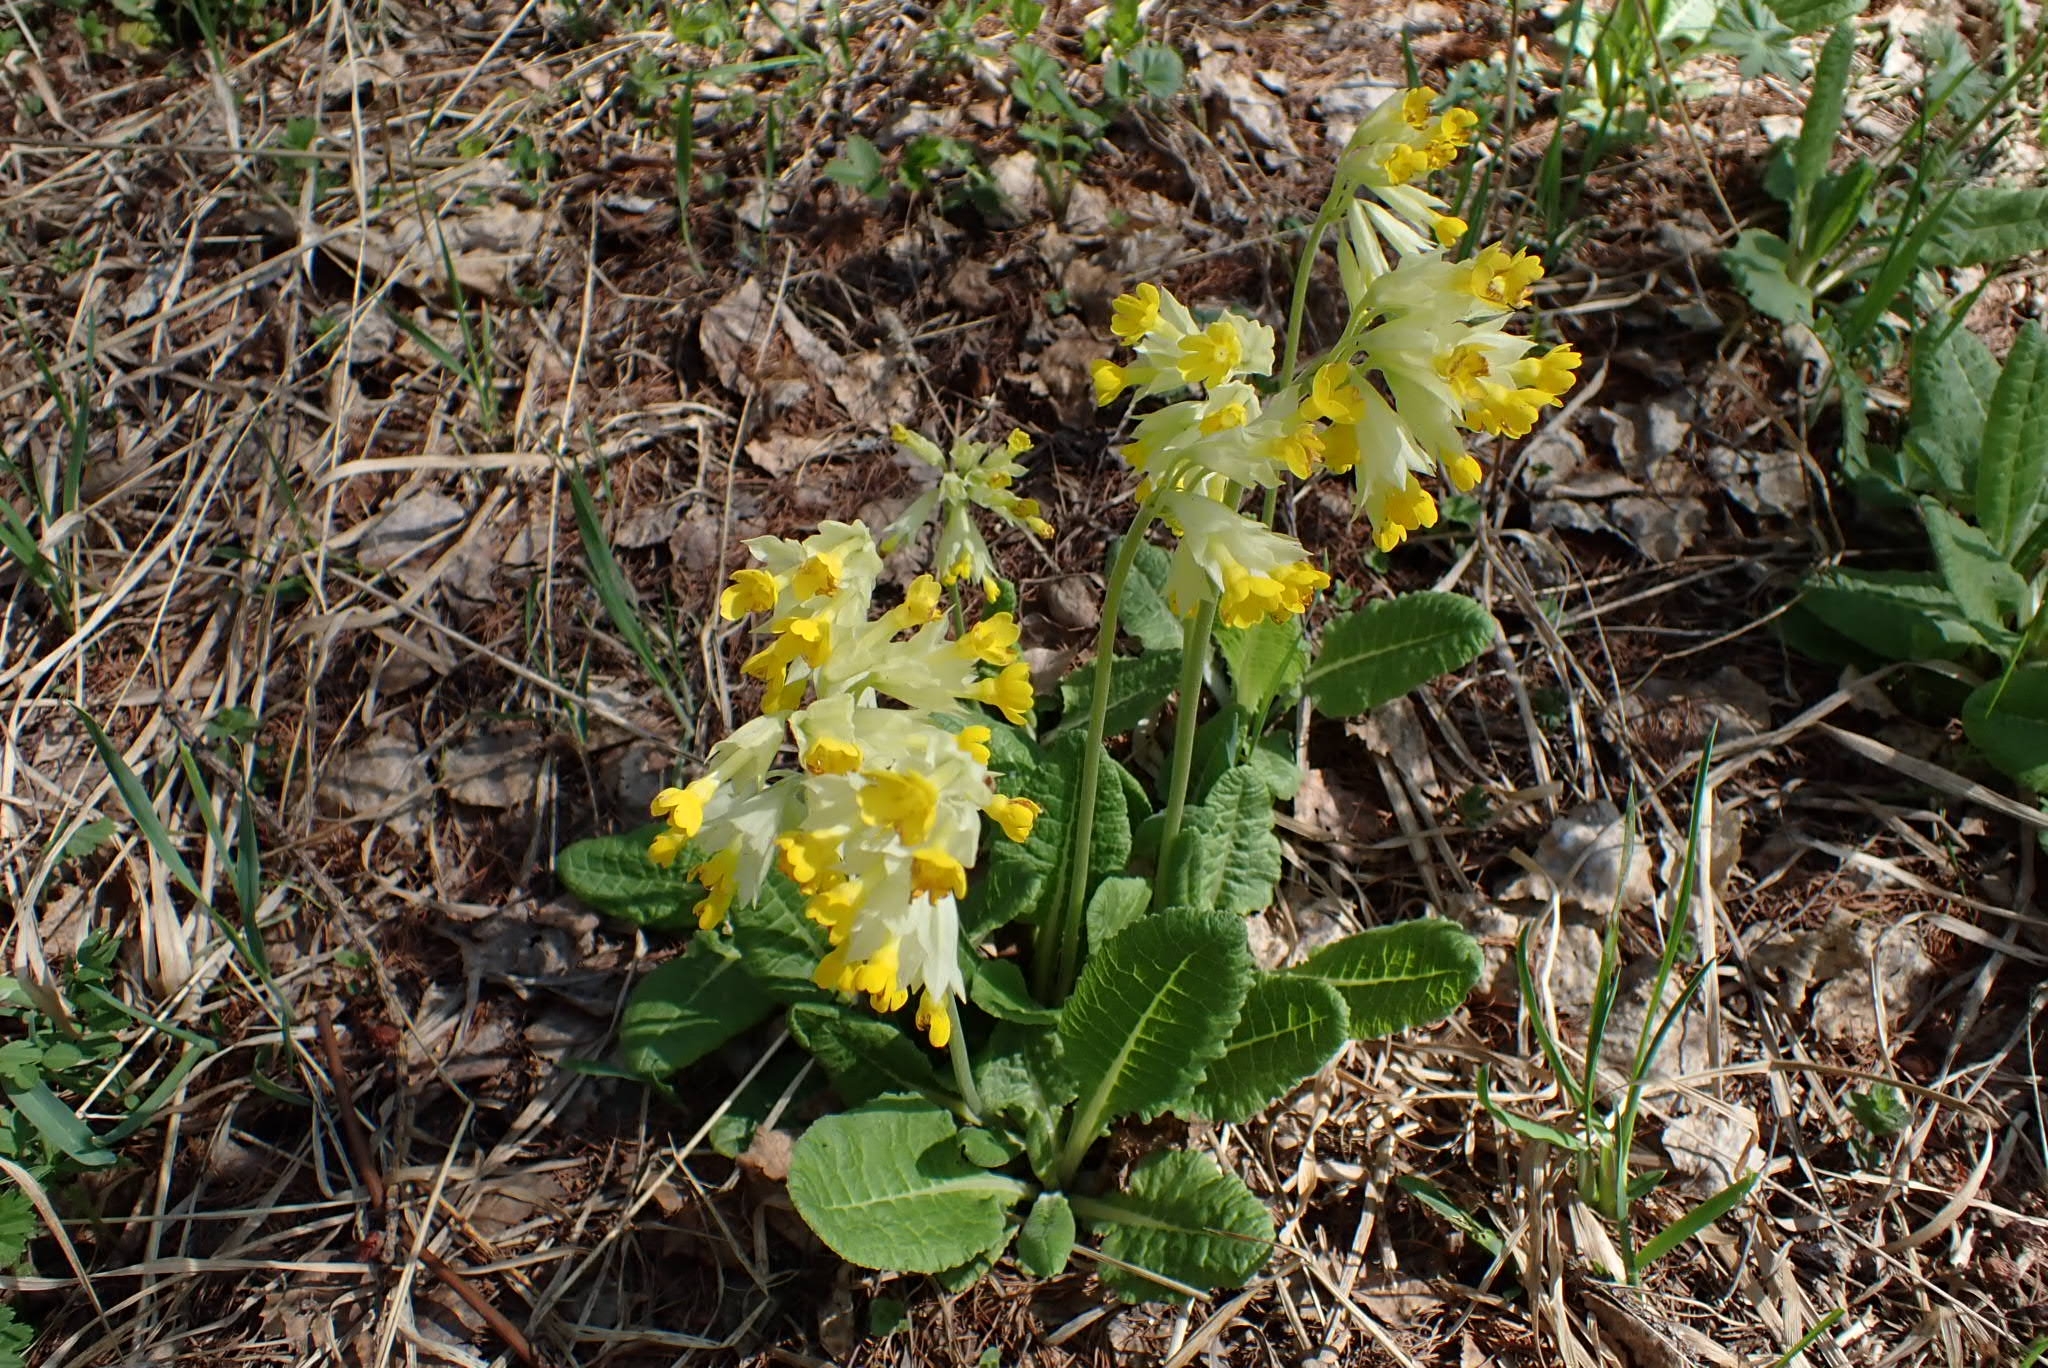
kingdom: Plantae
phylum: Tracheophyta
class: Magnoliopsida
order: Ericales
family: Primulaceae
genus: Primula
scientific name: Primula veris
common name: Cowslip
